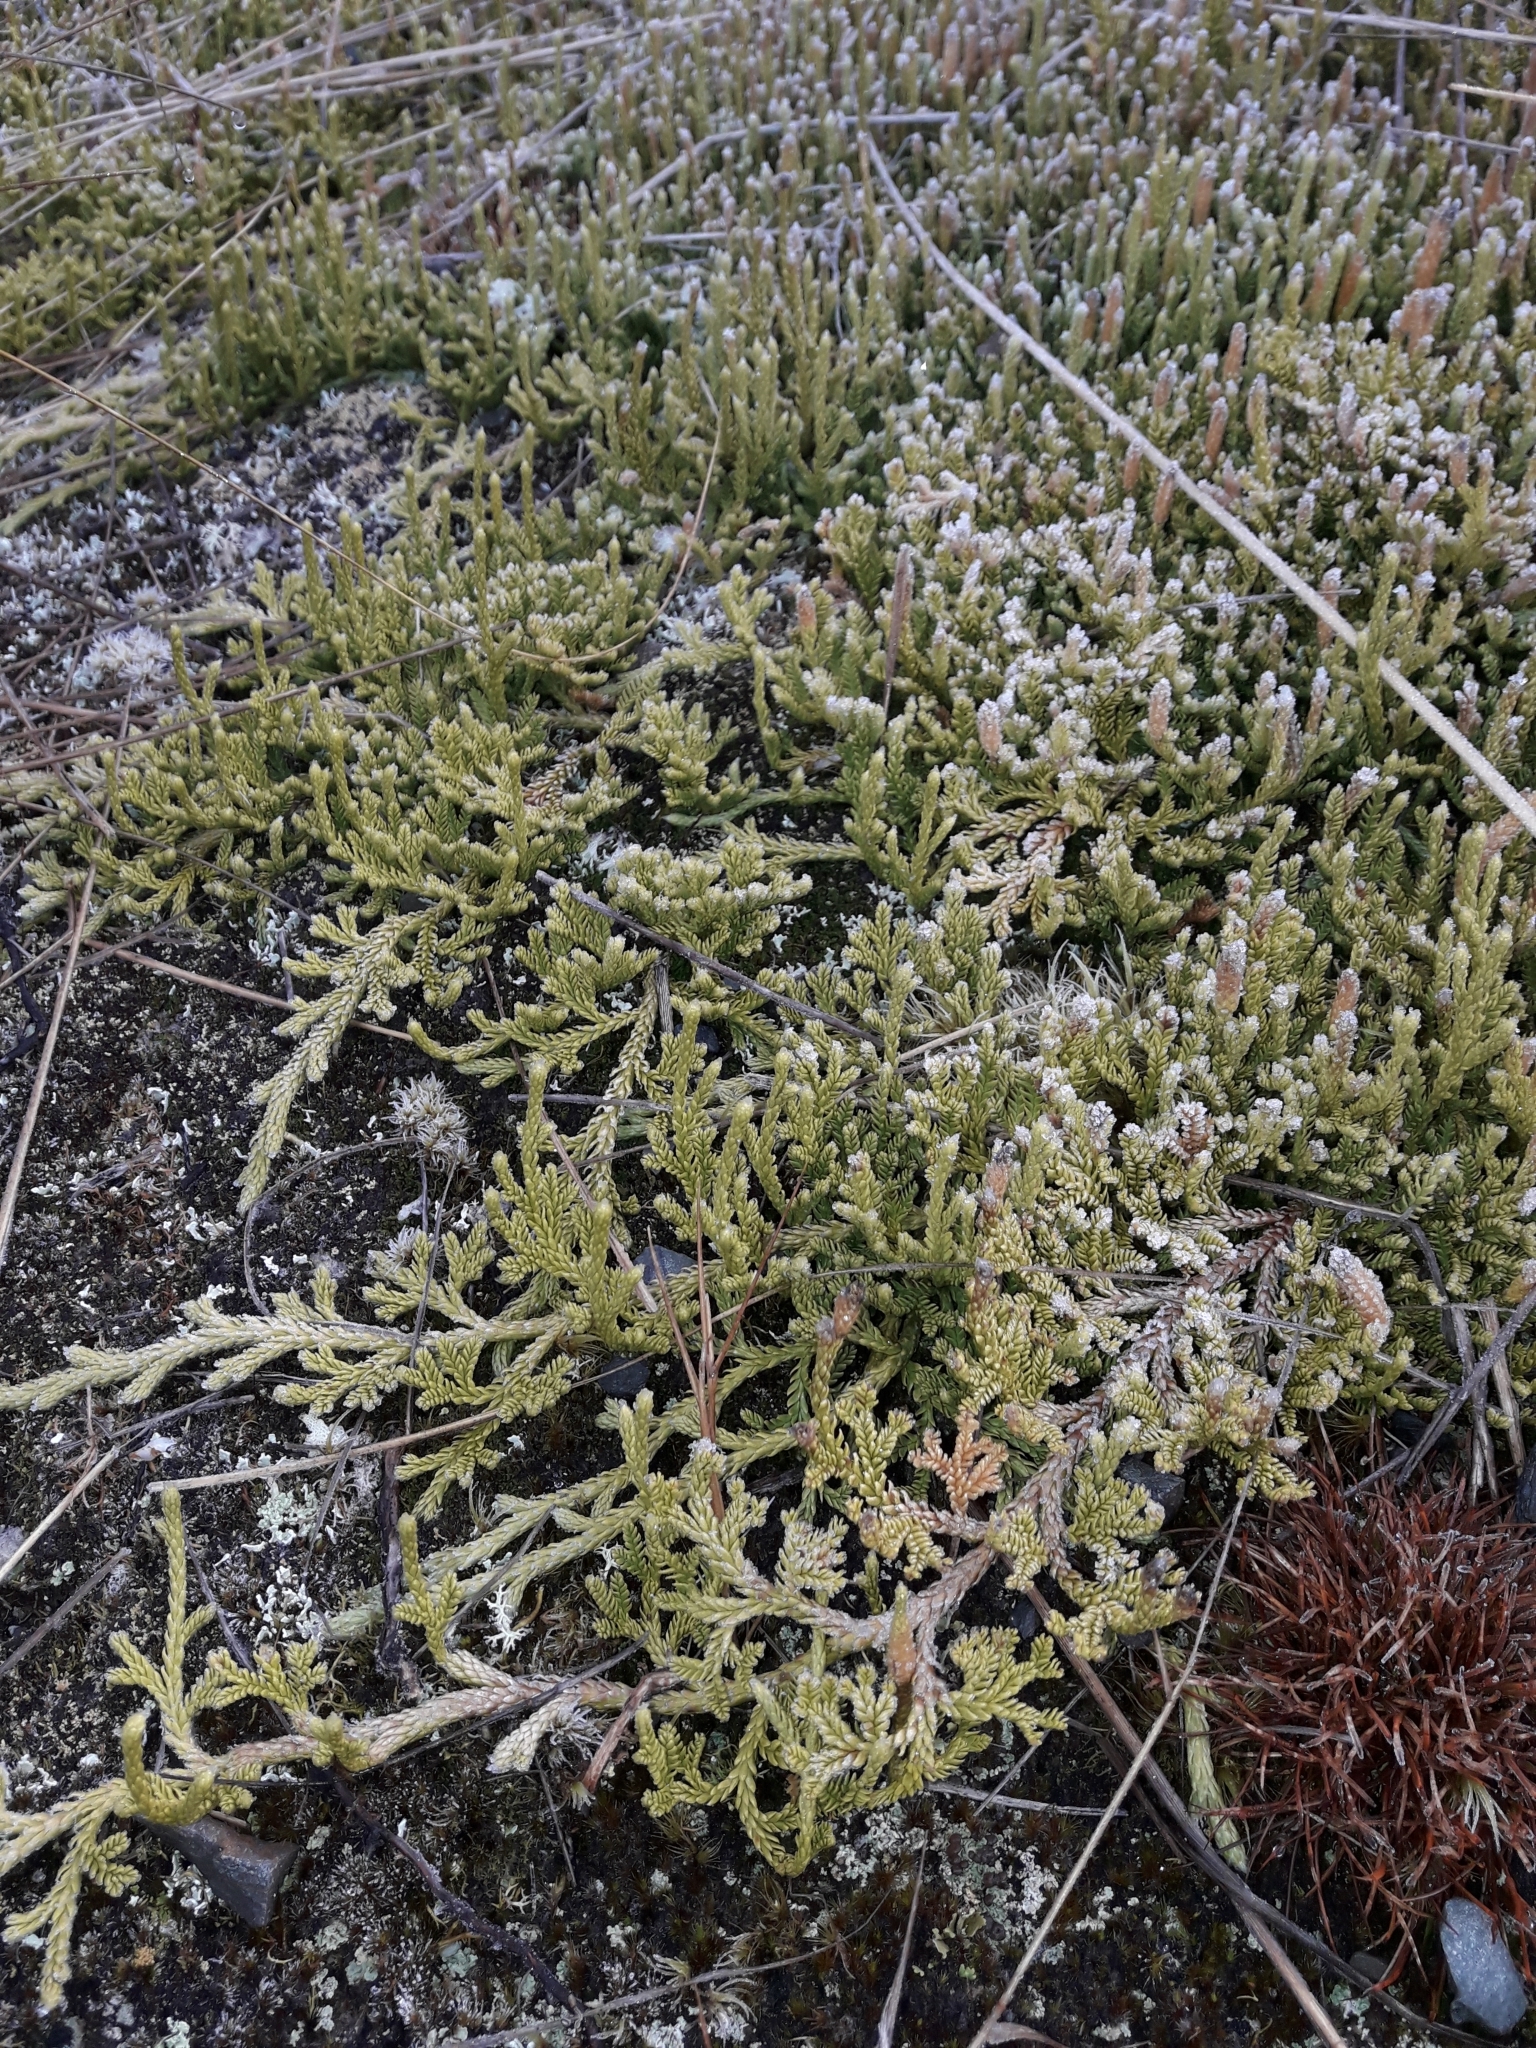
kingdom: Plantae
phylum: Tracheophyta
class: Lycopodiopsida
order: Lycopodiales
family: Lycopodiaceae
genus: Diphasium
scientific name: Diphasium scariosum
